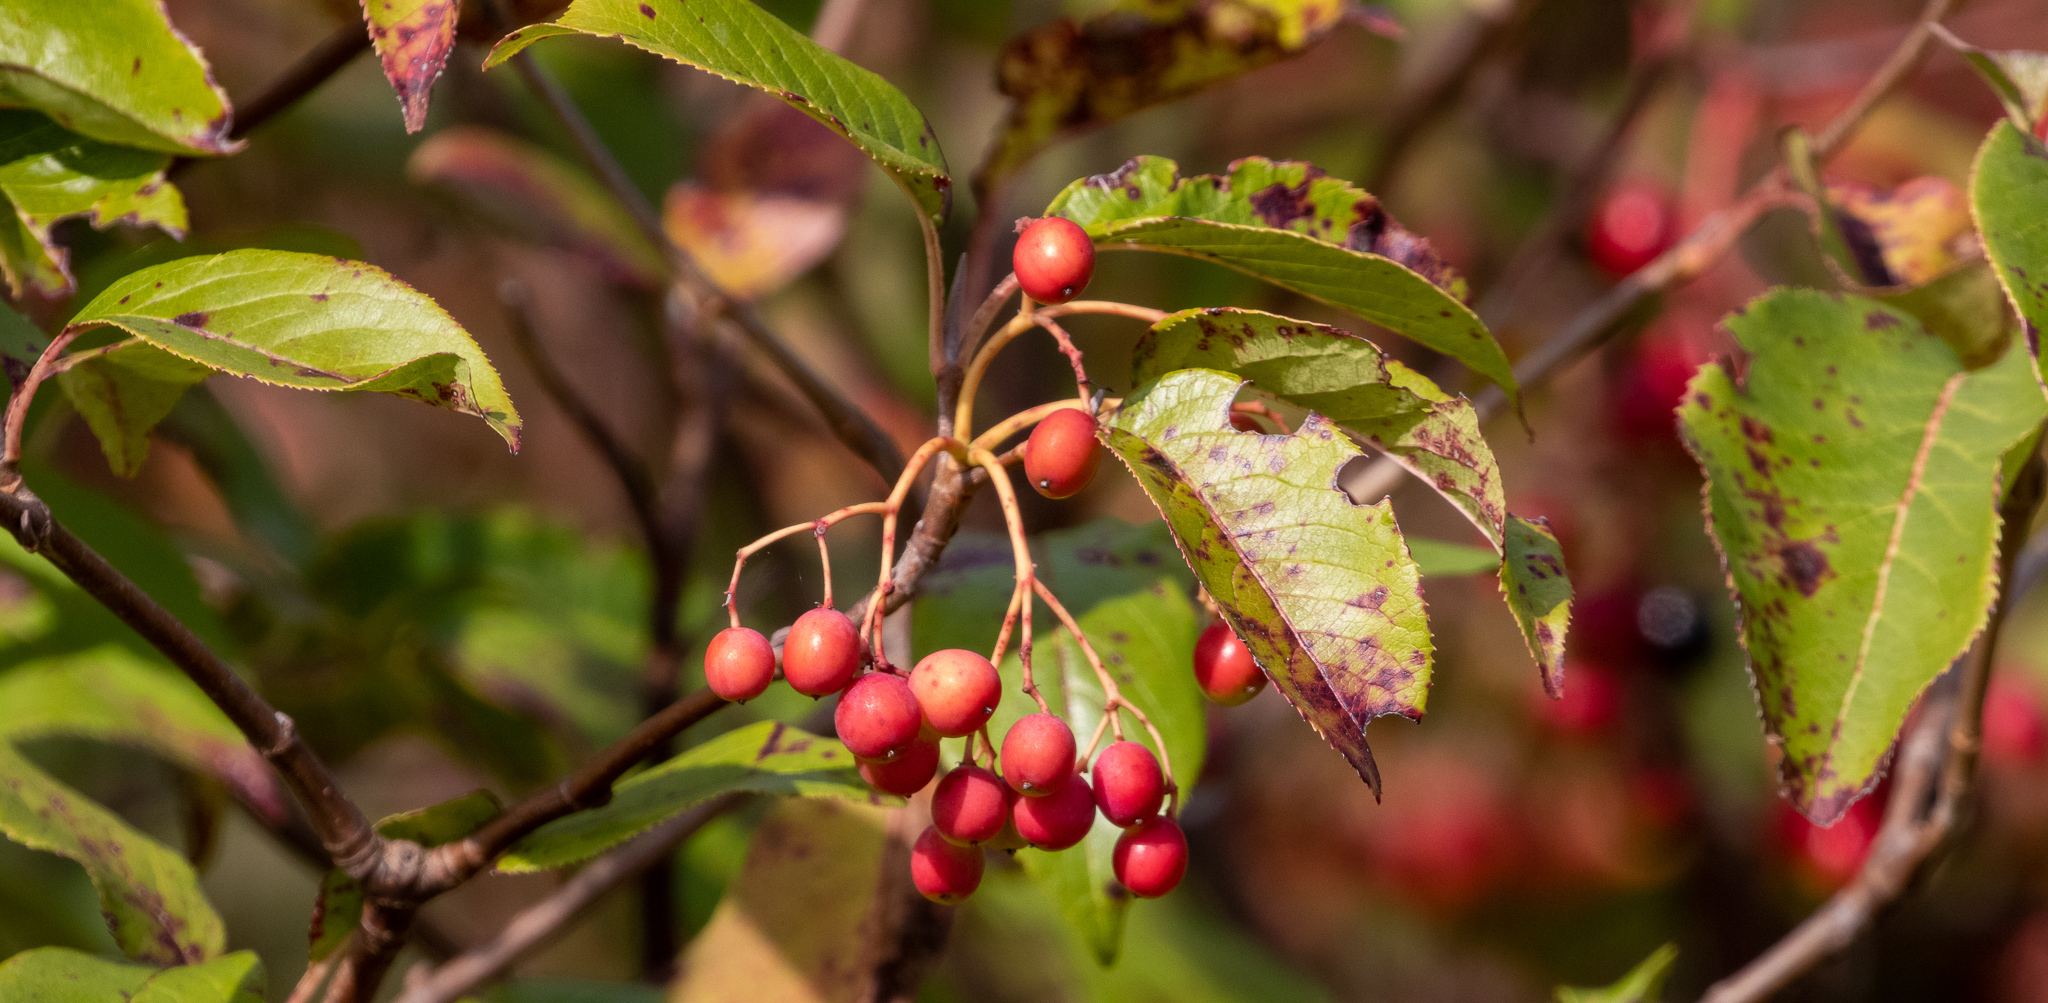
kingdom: Plantae
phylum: Tracheophyta
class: Magnoliopsida
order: Dipsacales
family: Viburnaceae
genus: Viburnum
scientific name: Viburnum lentago
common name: Black haw
